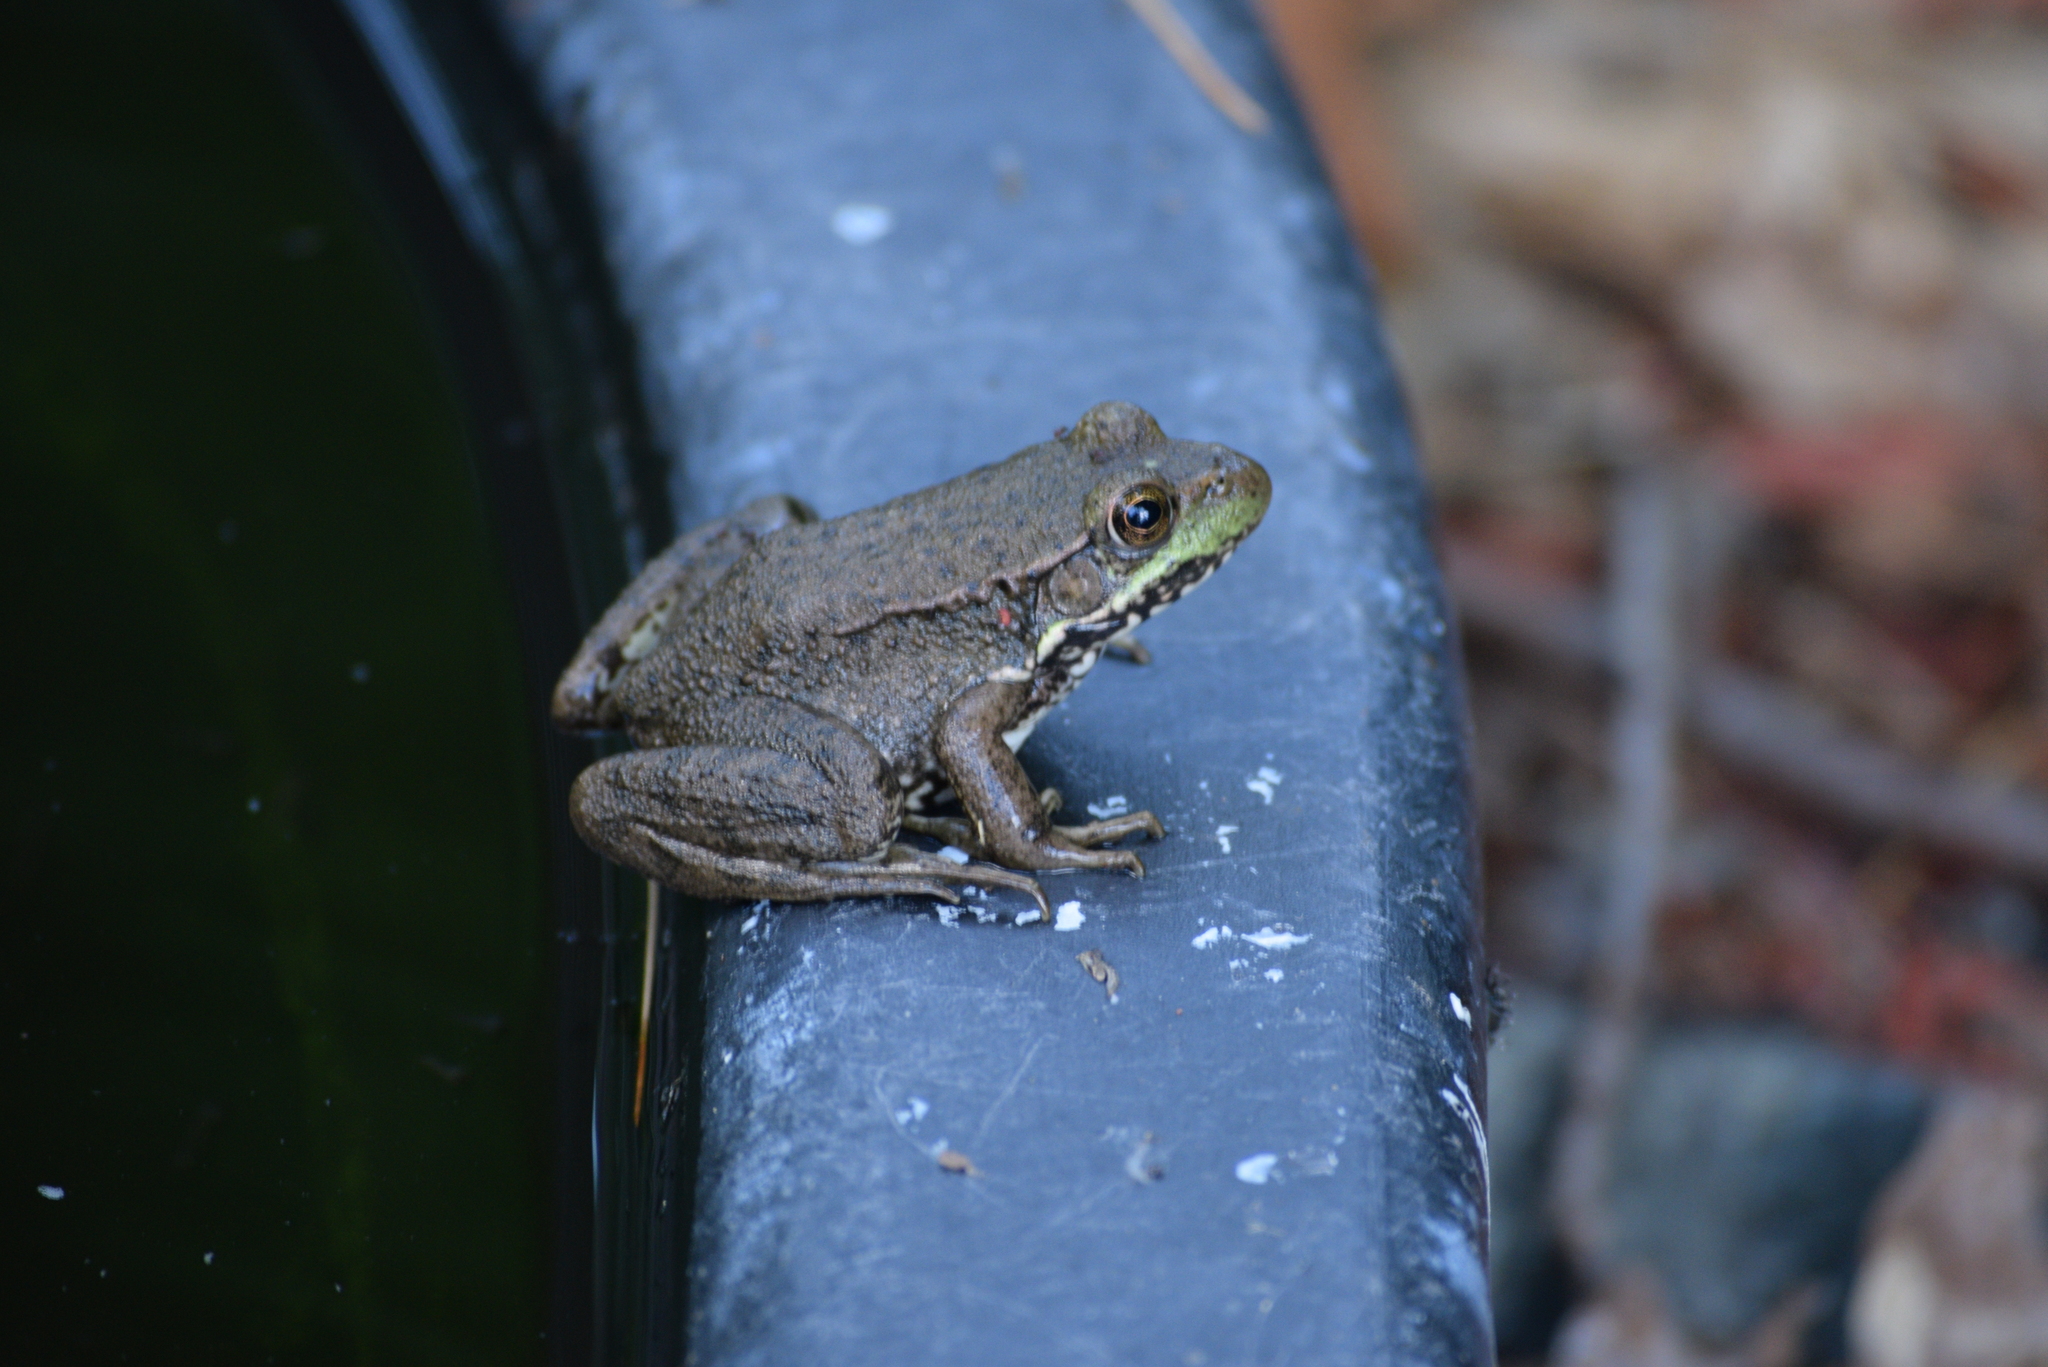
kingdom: Animalia
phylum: Chordata
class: Amphibia
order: Anura
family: Ranidae
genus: Lithobates
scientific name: Lithobates clamitans
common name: Green frog
